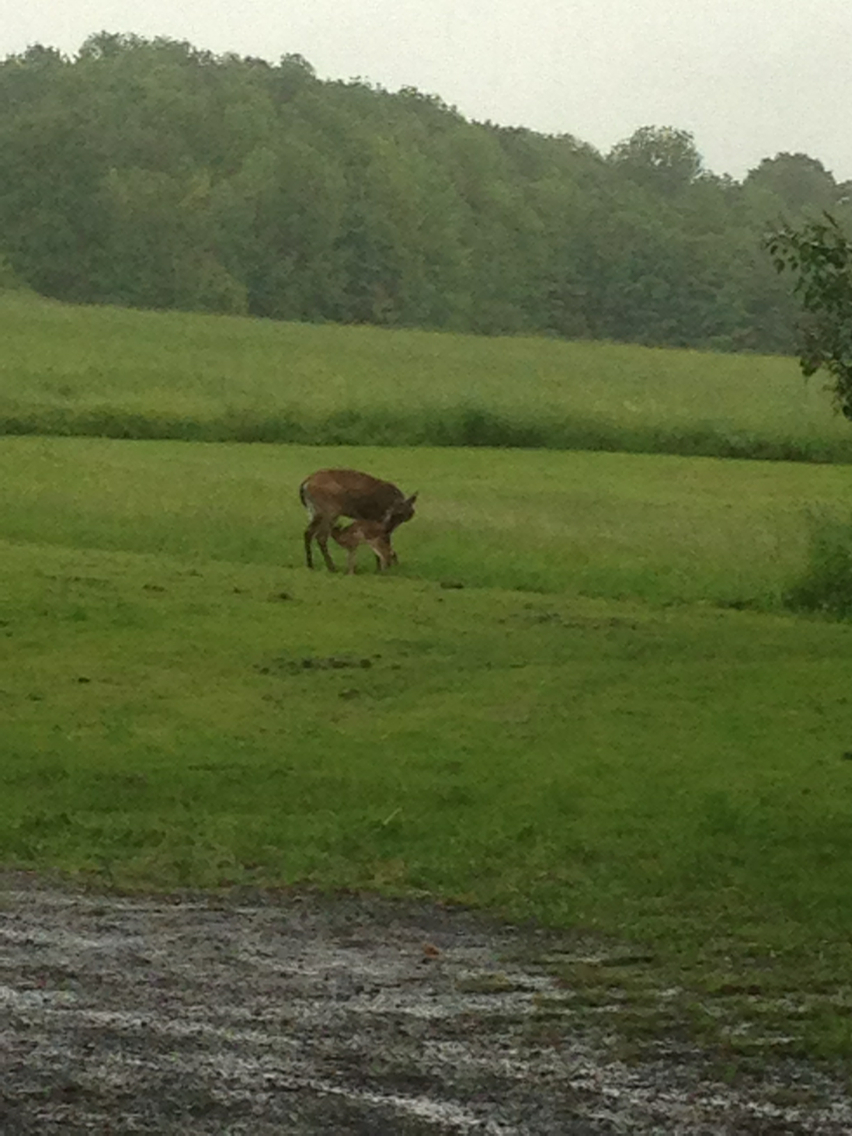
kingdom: Animalia
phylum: Chordata
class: Mammalia
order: Artiodactyla
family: Cervidae
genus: Odocoileus
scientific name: Odocoileus virginianus
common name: White-tailed deer
